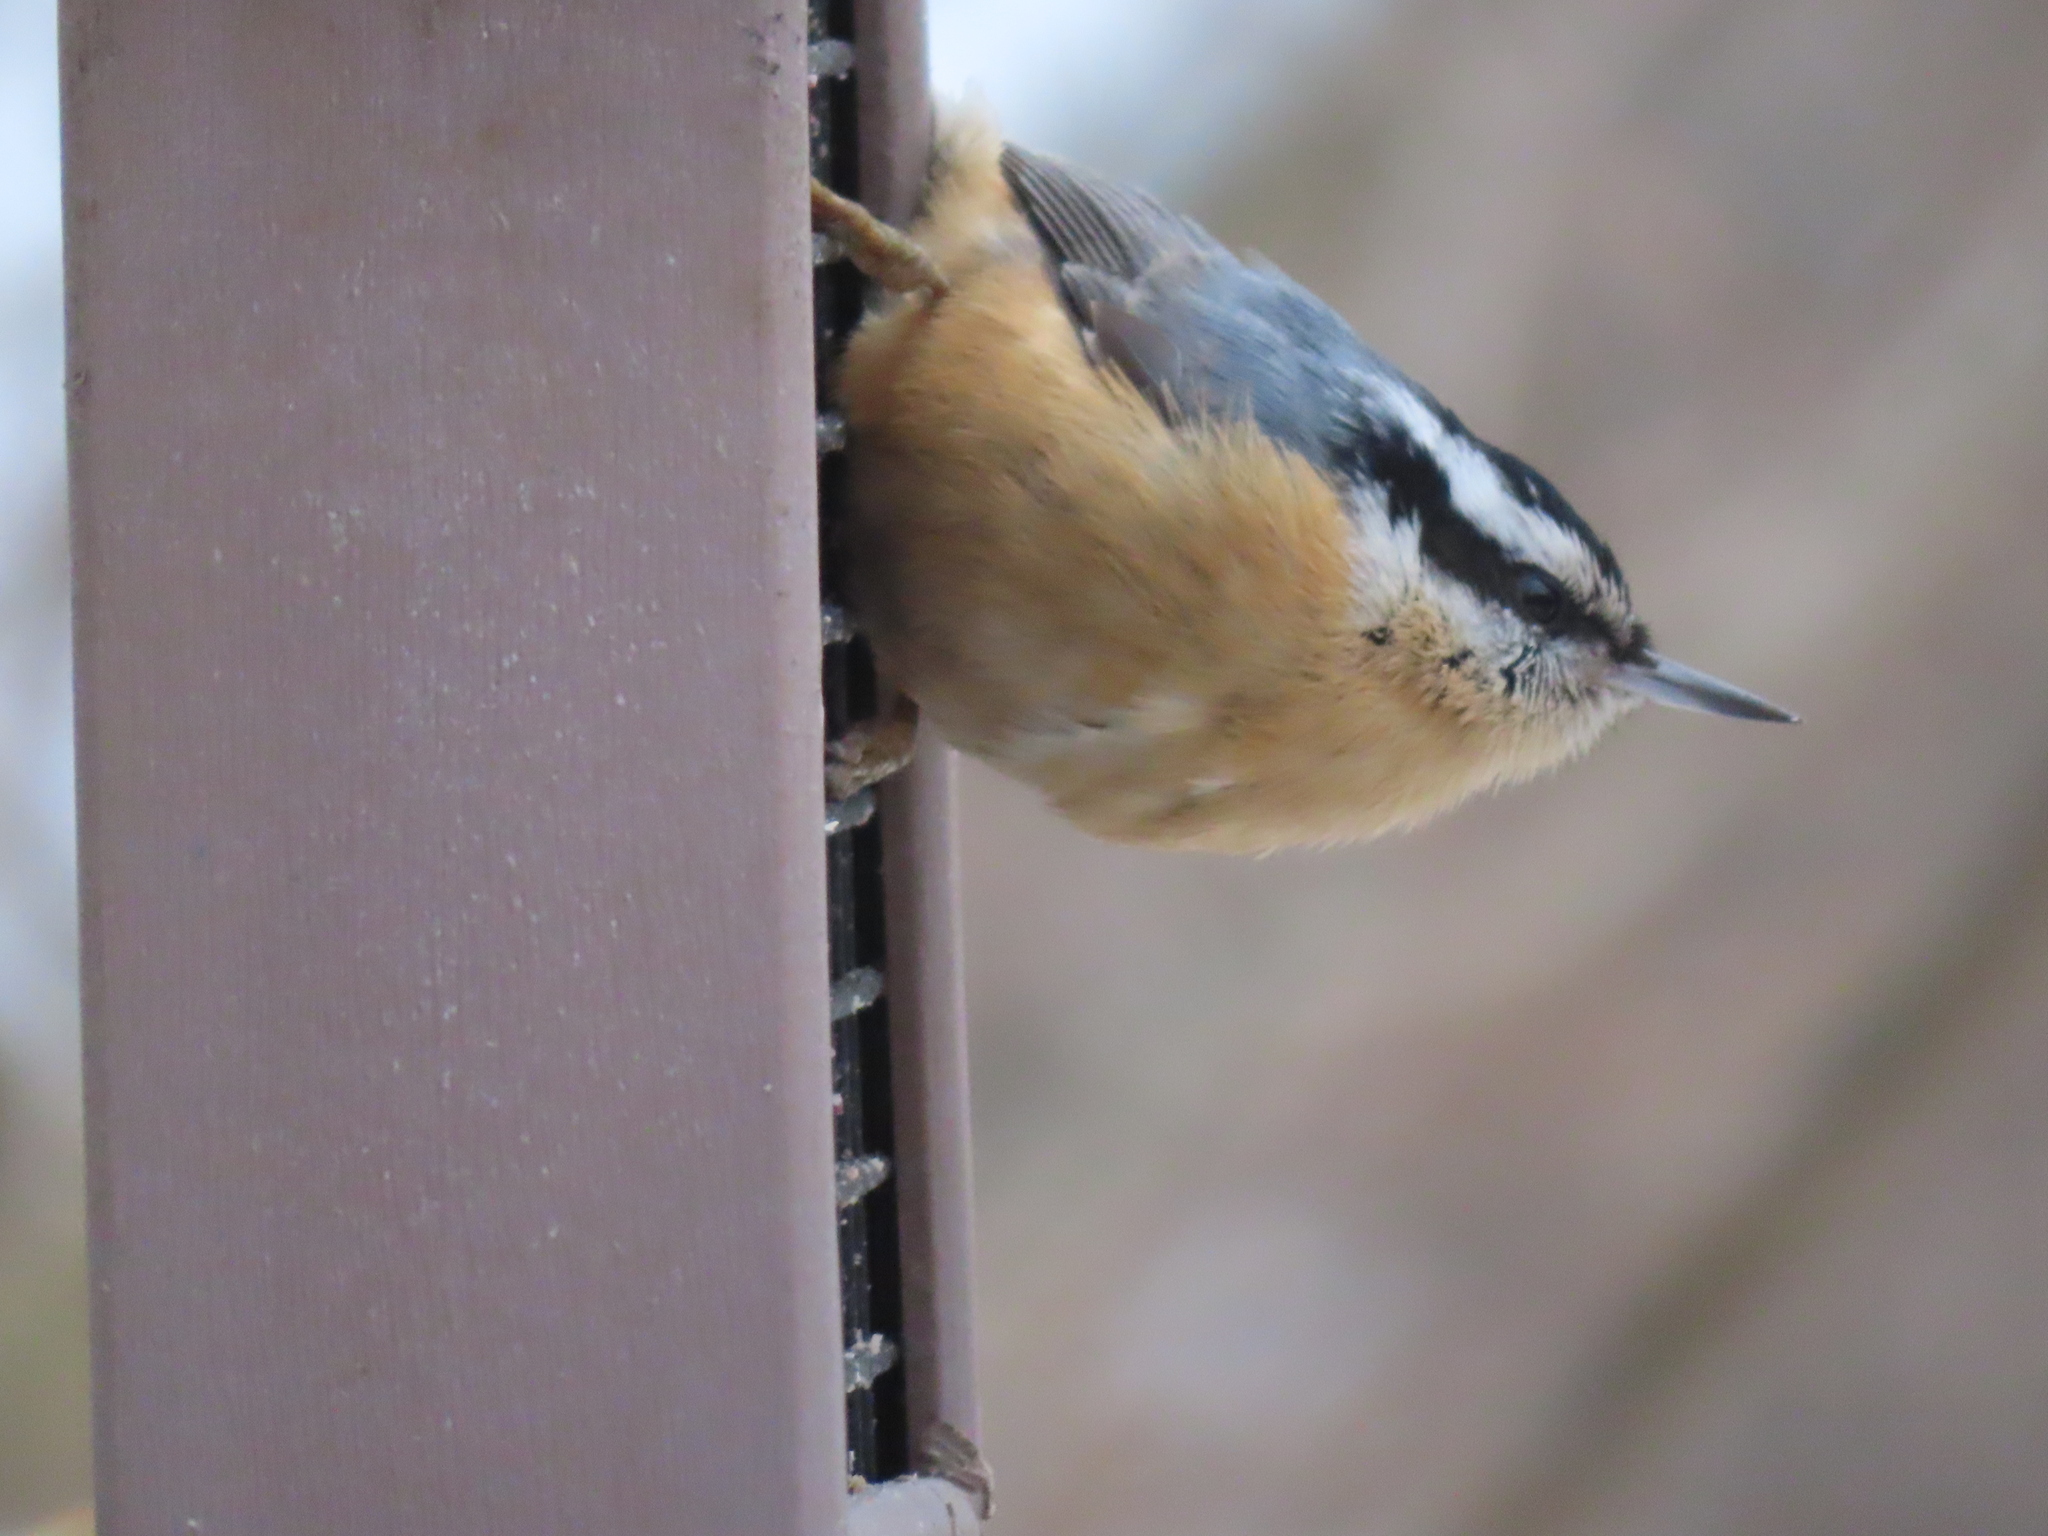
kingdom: Animalia
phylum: Chordata
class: Aves
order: Passeriformes
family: Sittidae
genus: Sitta
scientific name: Sitta canadensis
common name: Red-breasted nuthatch
